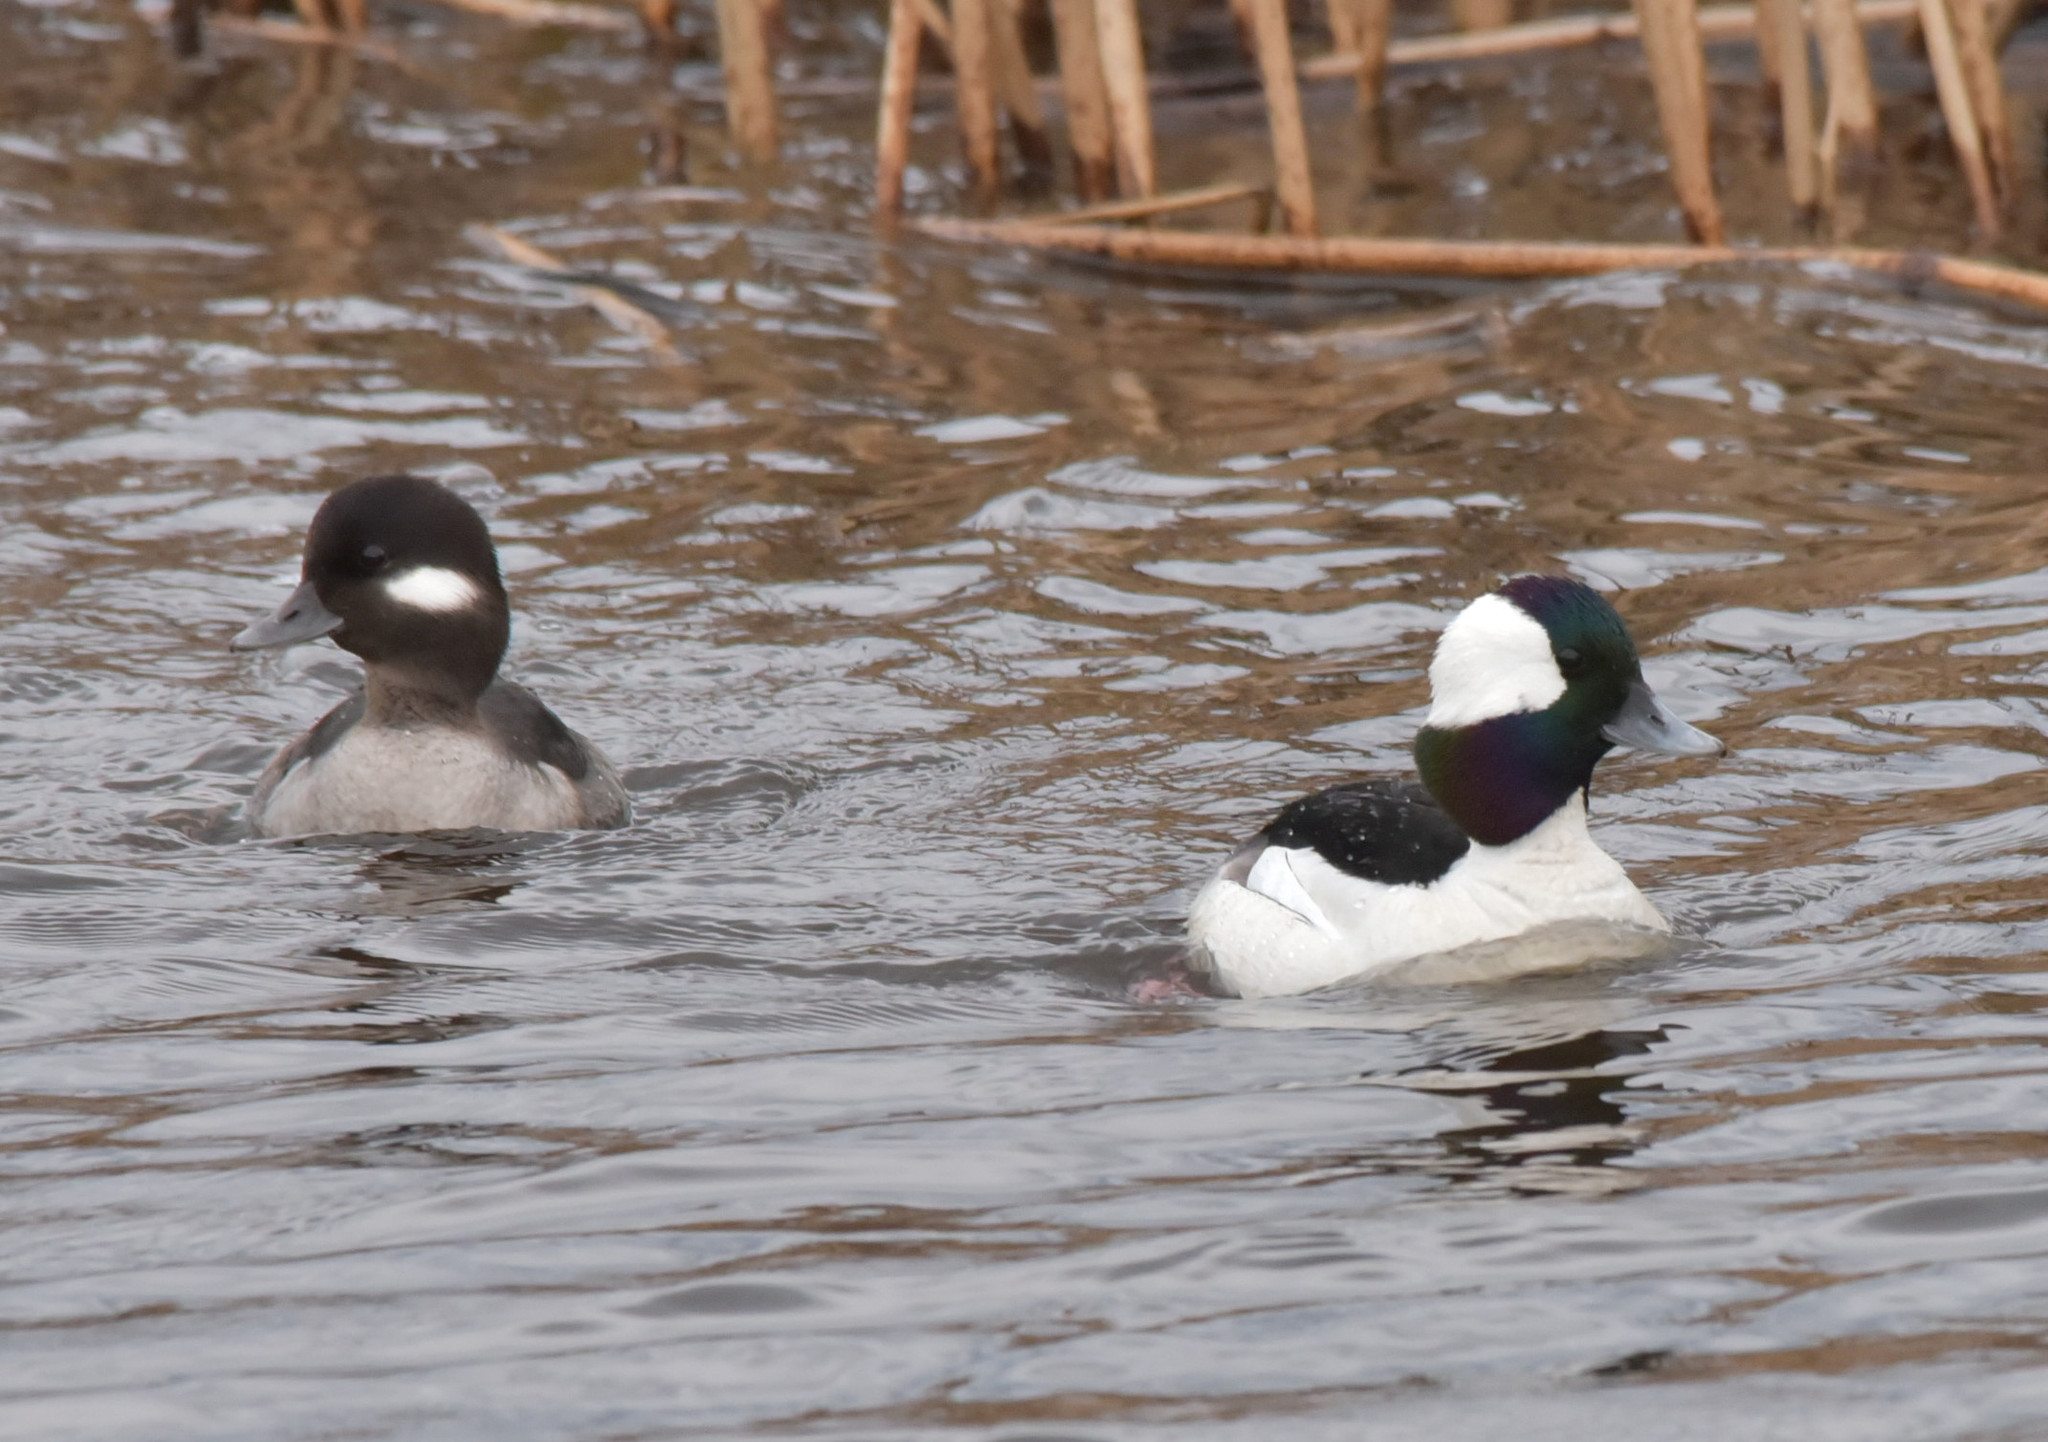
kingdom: Animalia
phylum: Chordata
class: Aves
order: Anseriformes
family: Anatidae
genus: Bucephala
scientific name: Bucephala albeola
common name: Bufflehead
